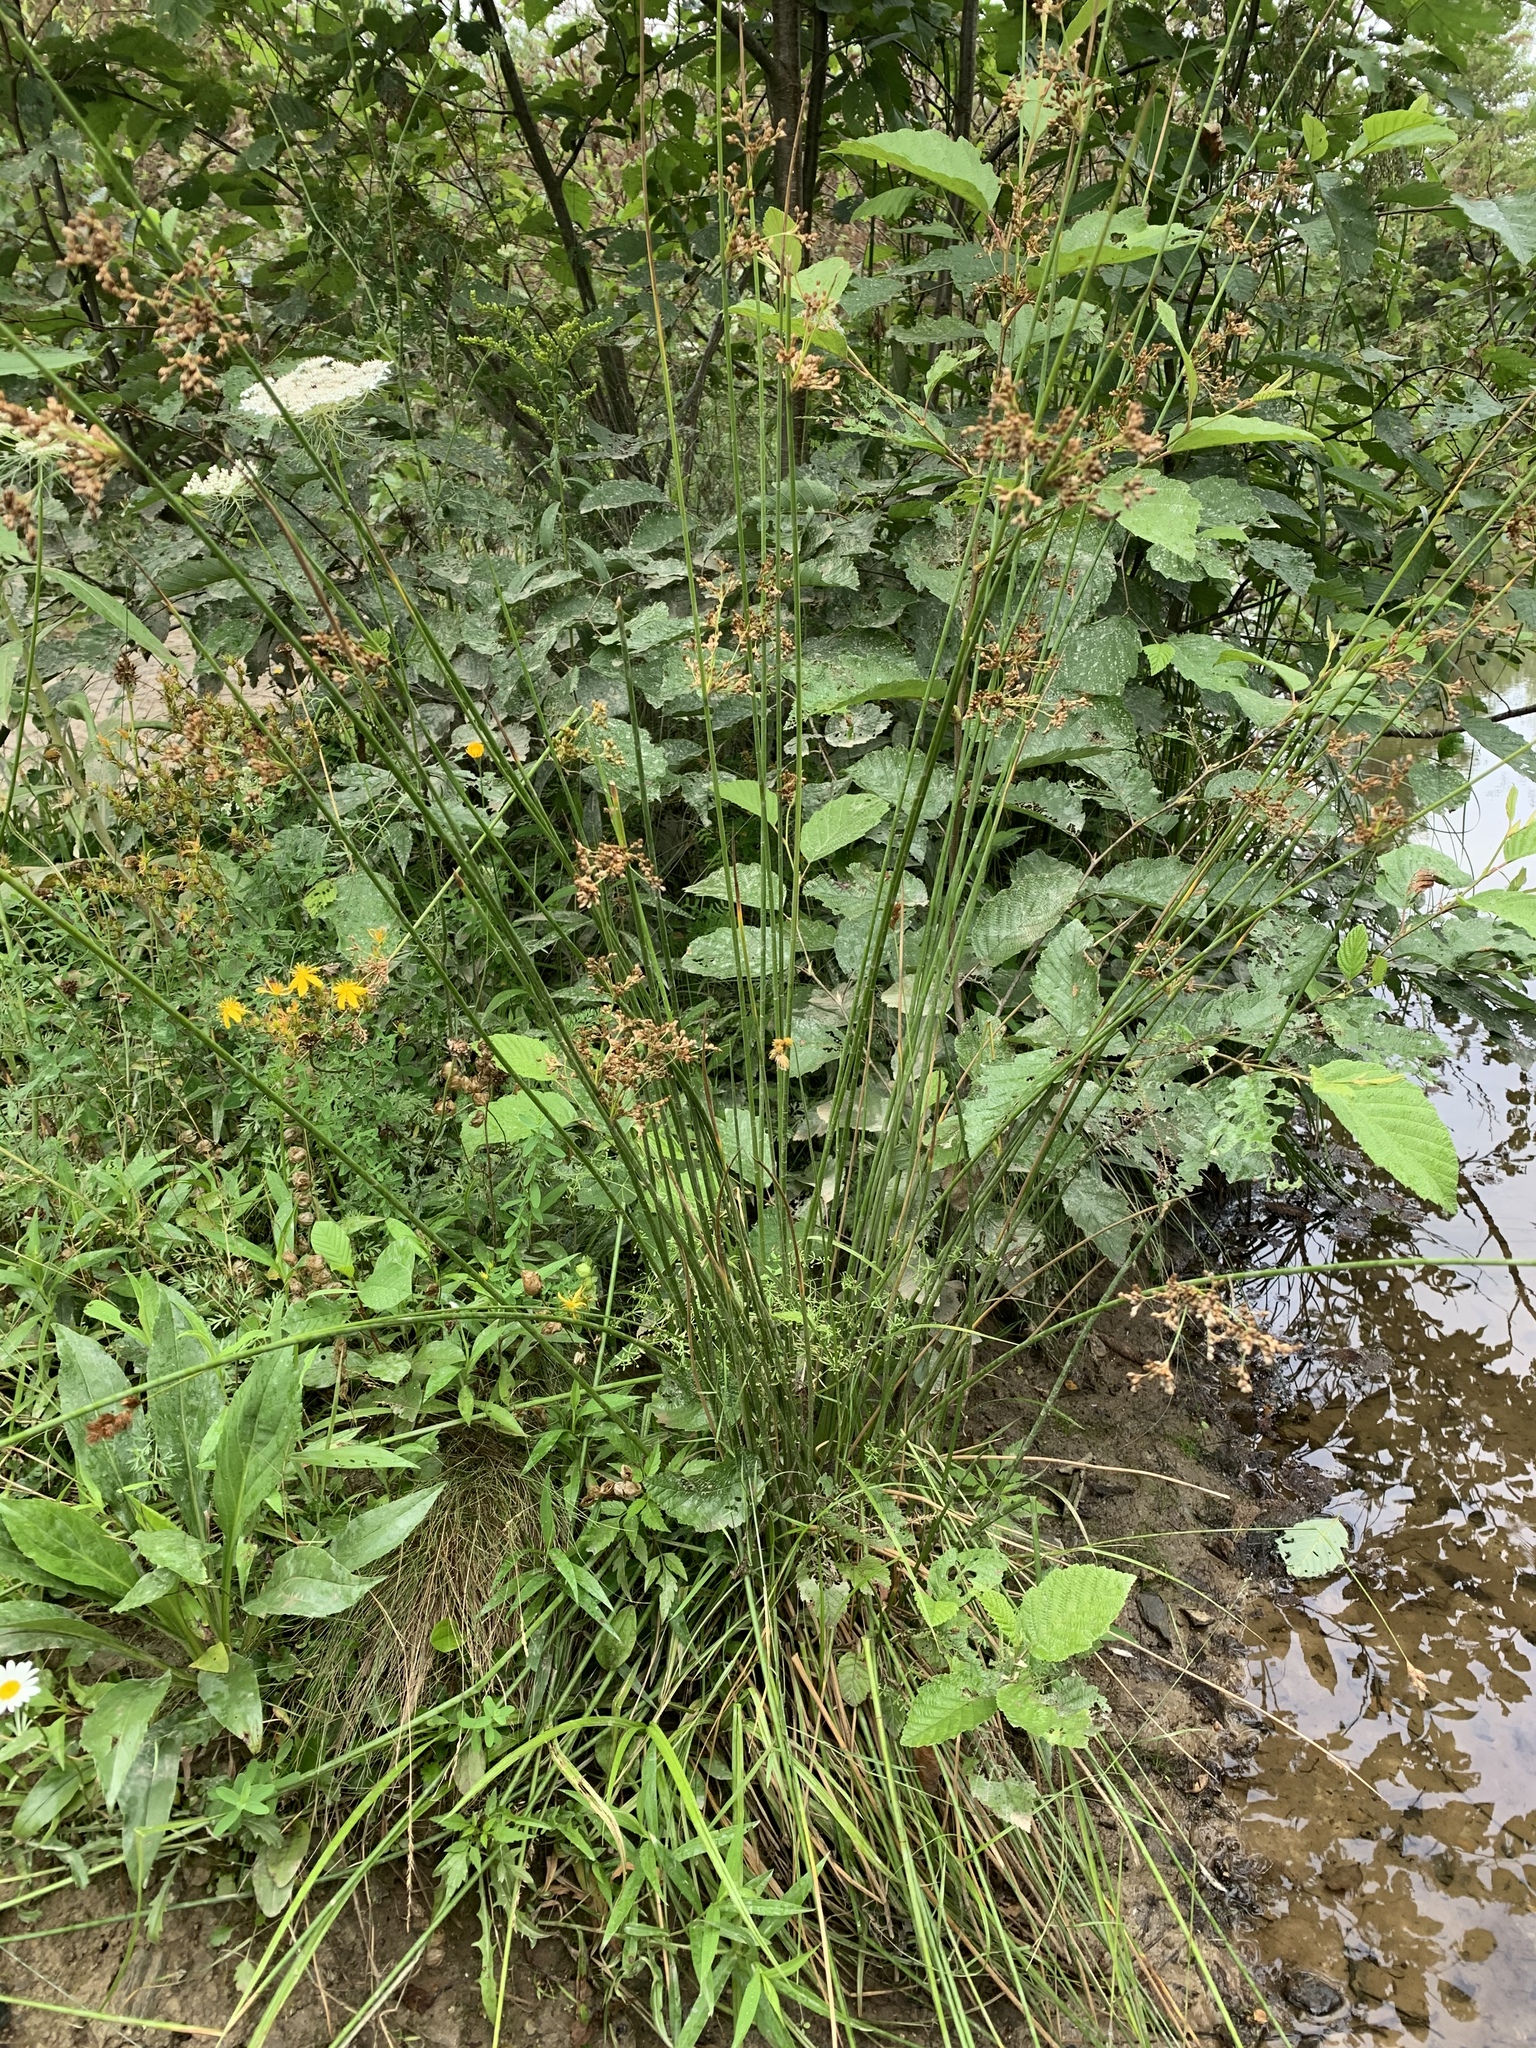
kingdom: Plantae
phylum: Tracheophyta
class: Liliopsida
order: Poales
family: Juncaceae
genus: Juncus
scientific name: Juncus effusus
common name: Soft rush
